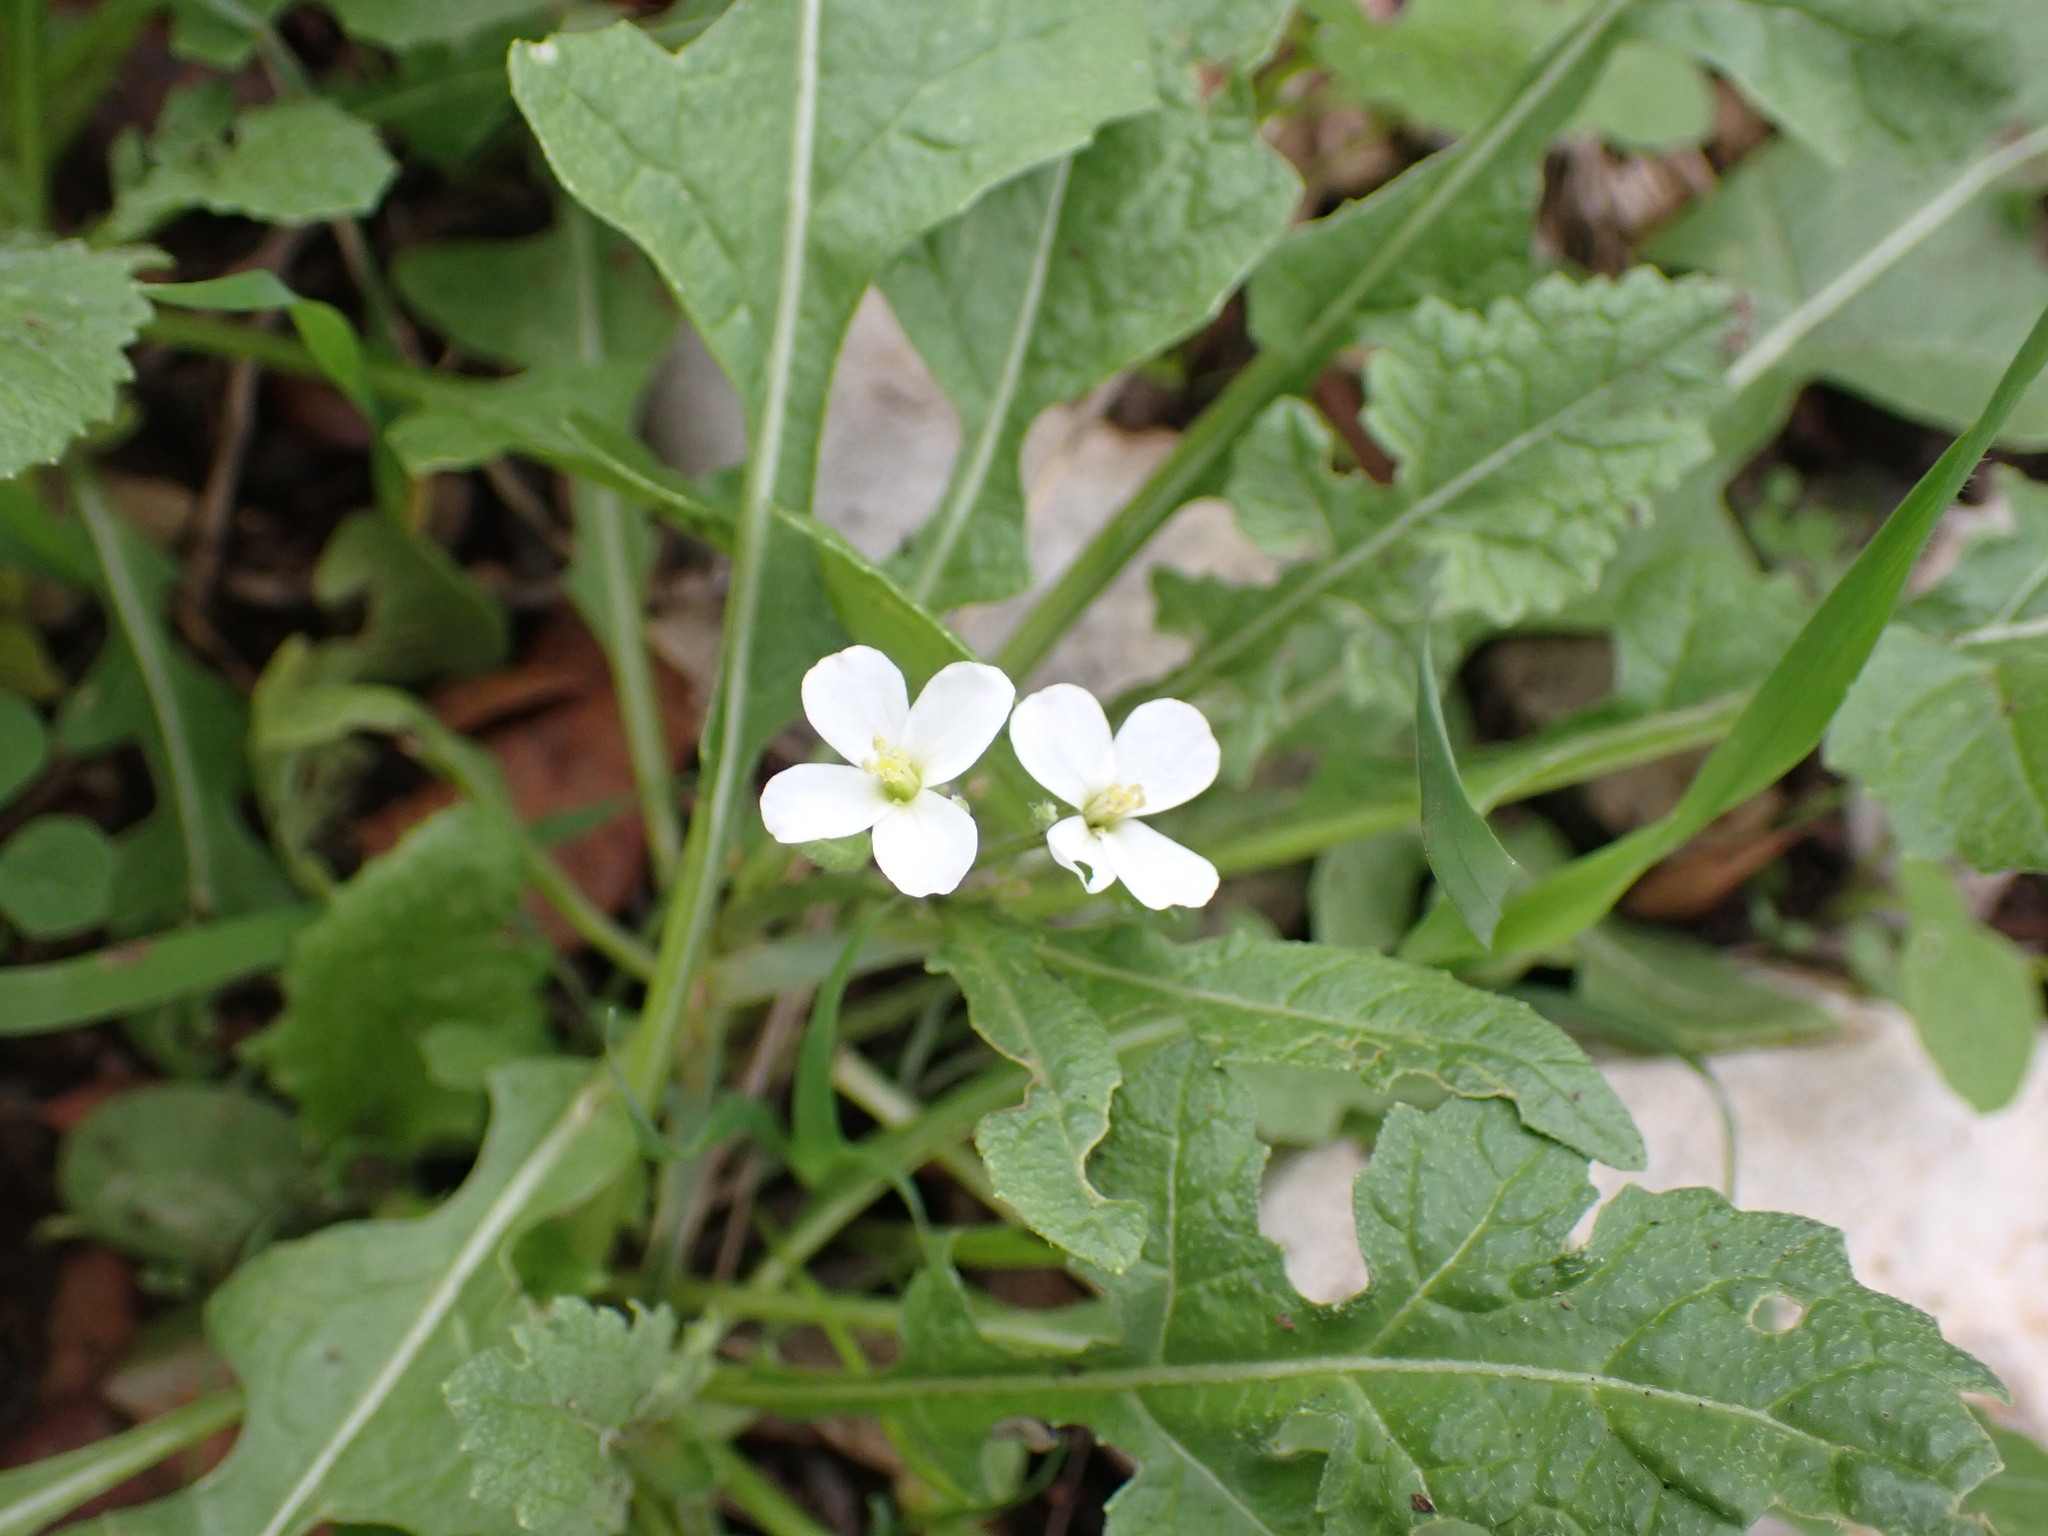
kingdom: Plantae
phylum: Tracheophyta
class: Magnoliopsida
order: Brassicales
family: Brassicaceae
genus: Diplotaxis
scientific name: Diplotaxis erucoides
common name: White rocket
